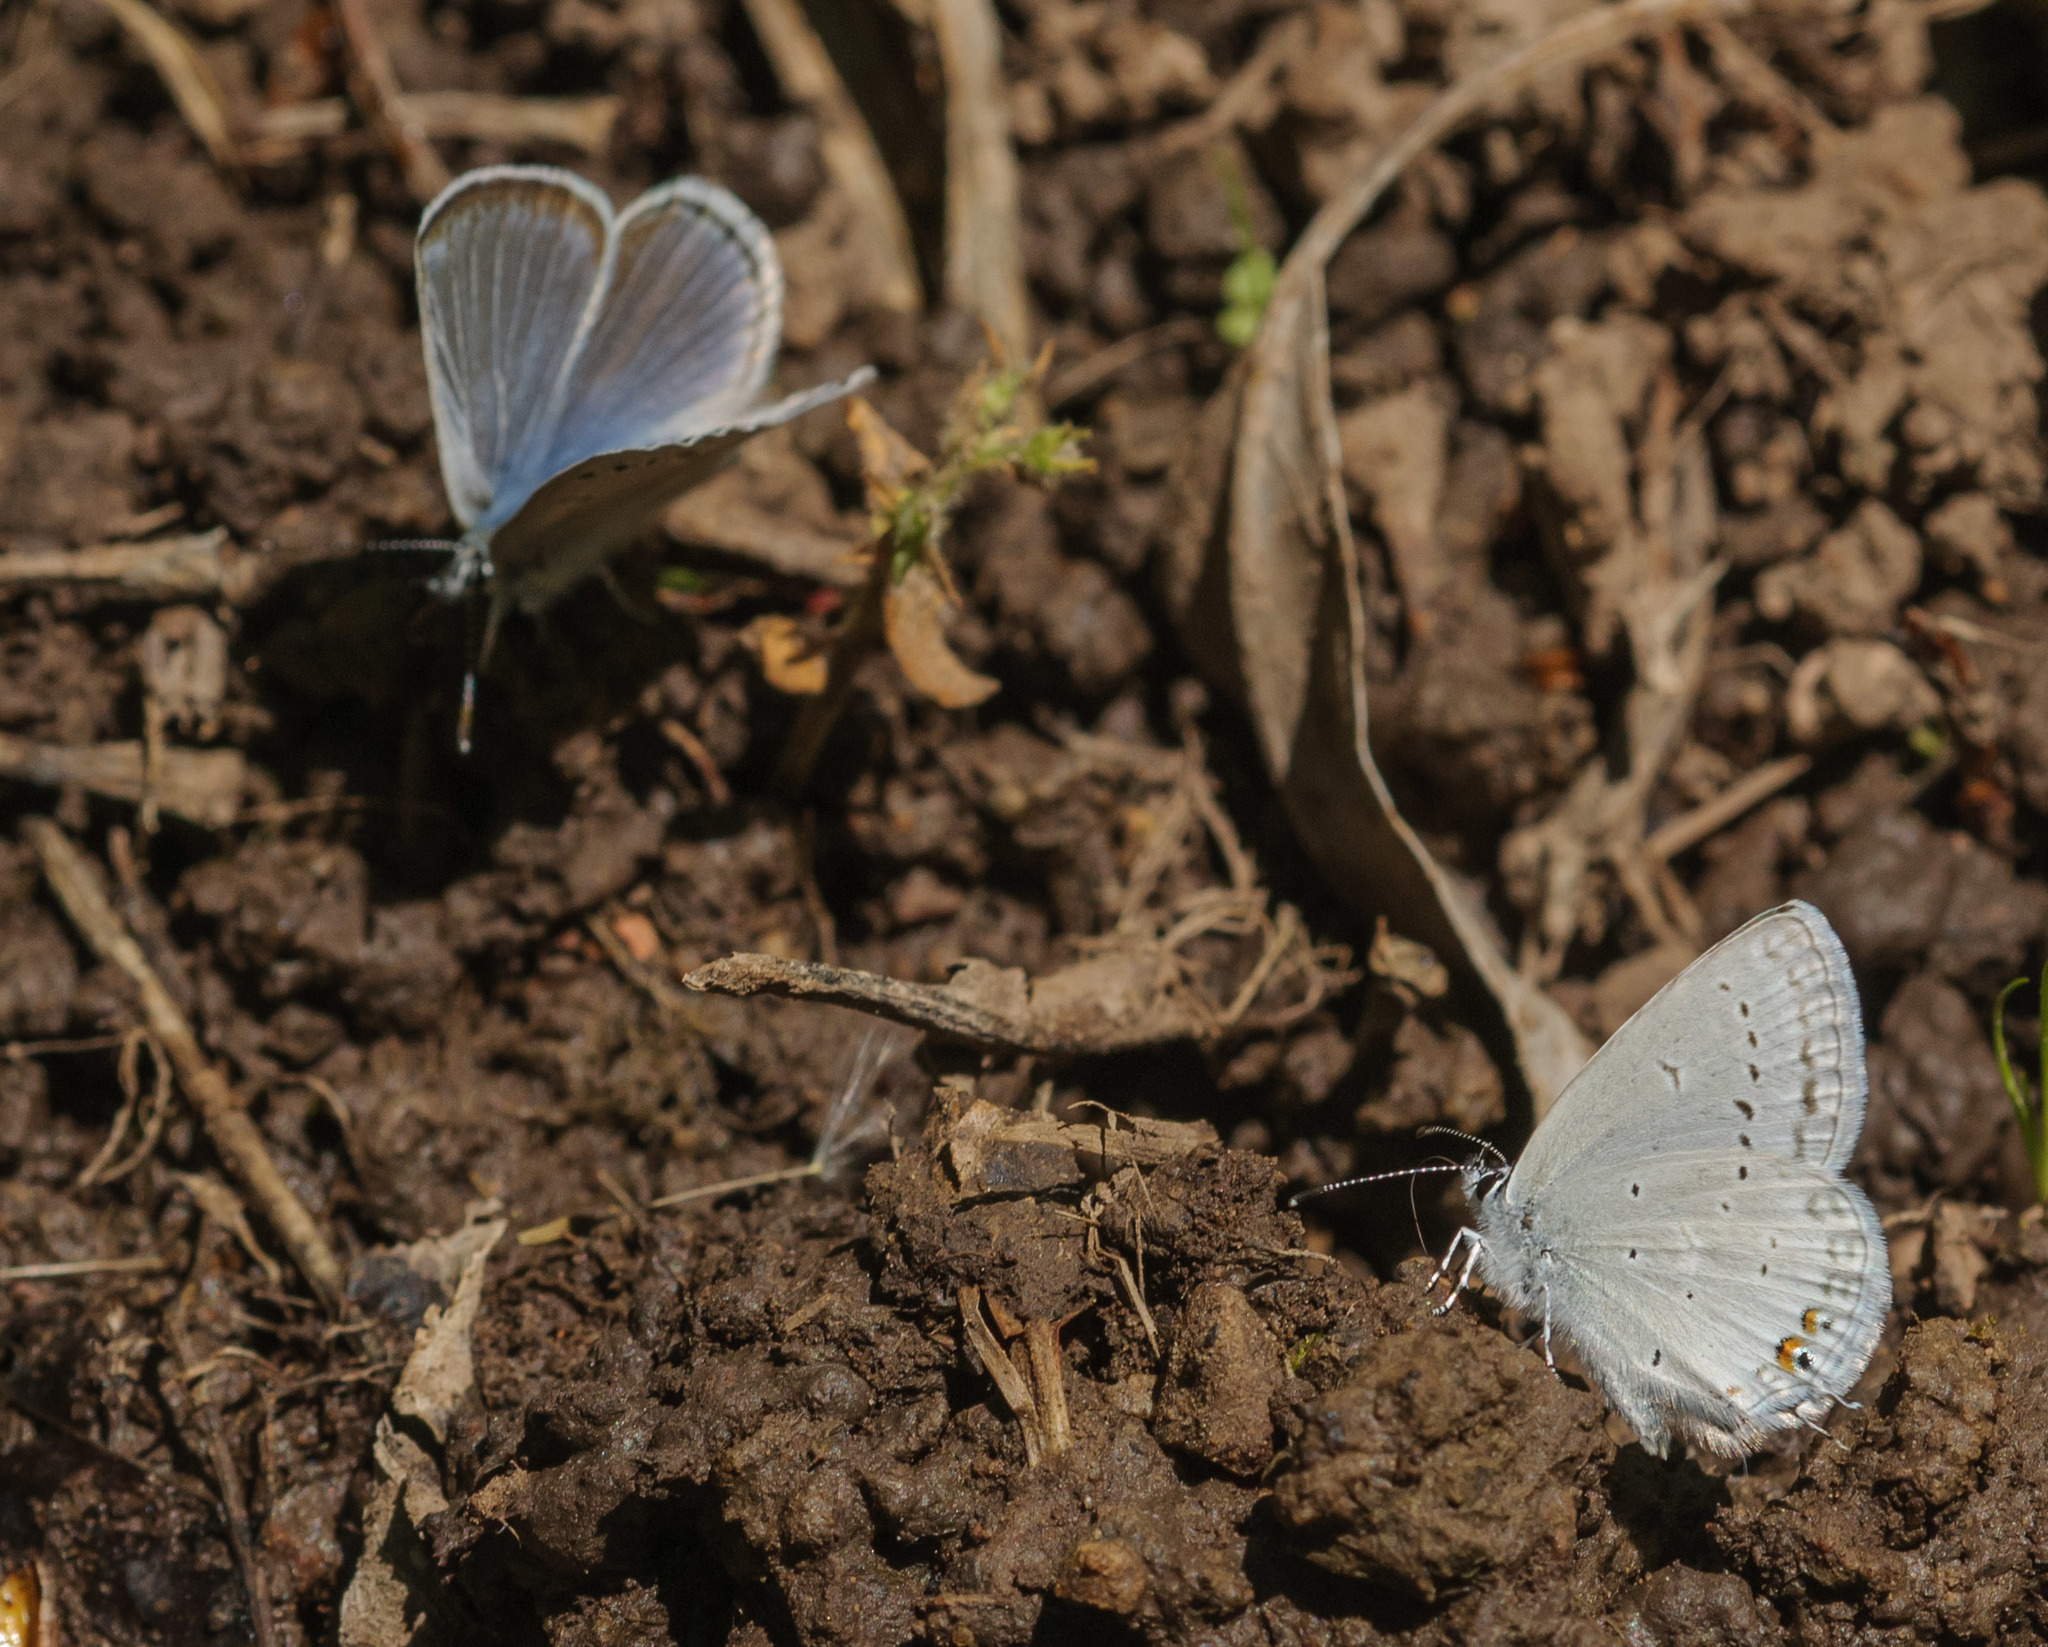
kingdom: Animalia
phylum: Arthropoda
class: Insecta
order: Lepidoptera
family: Lycaenidae
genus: Elkalyce
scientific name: Elkalyce amyntula
